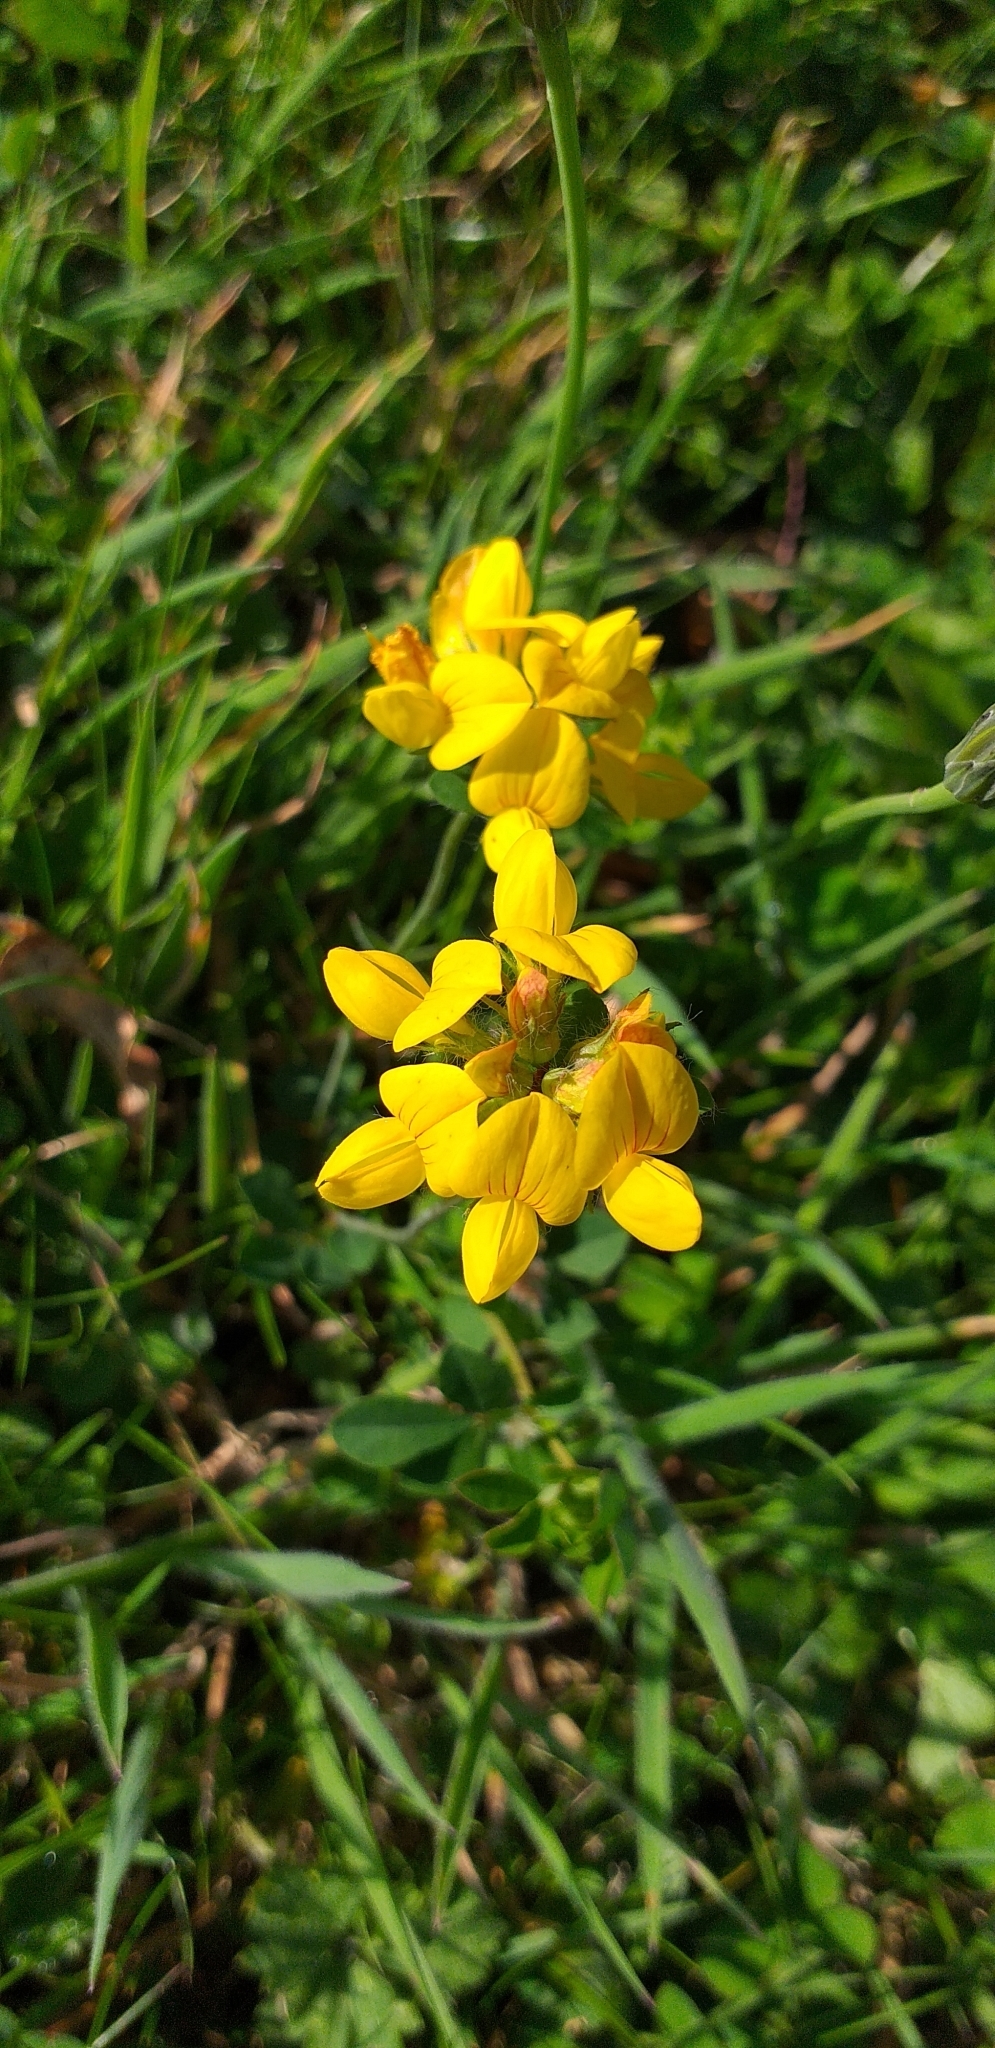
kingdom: Plantae
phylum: Tracheophyta
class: Magnoliopsida
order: Fabales
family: Fabaceae
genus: Lotus
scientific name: Lotus pedunculatus
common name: Greater birdsfoot-trefoil
